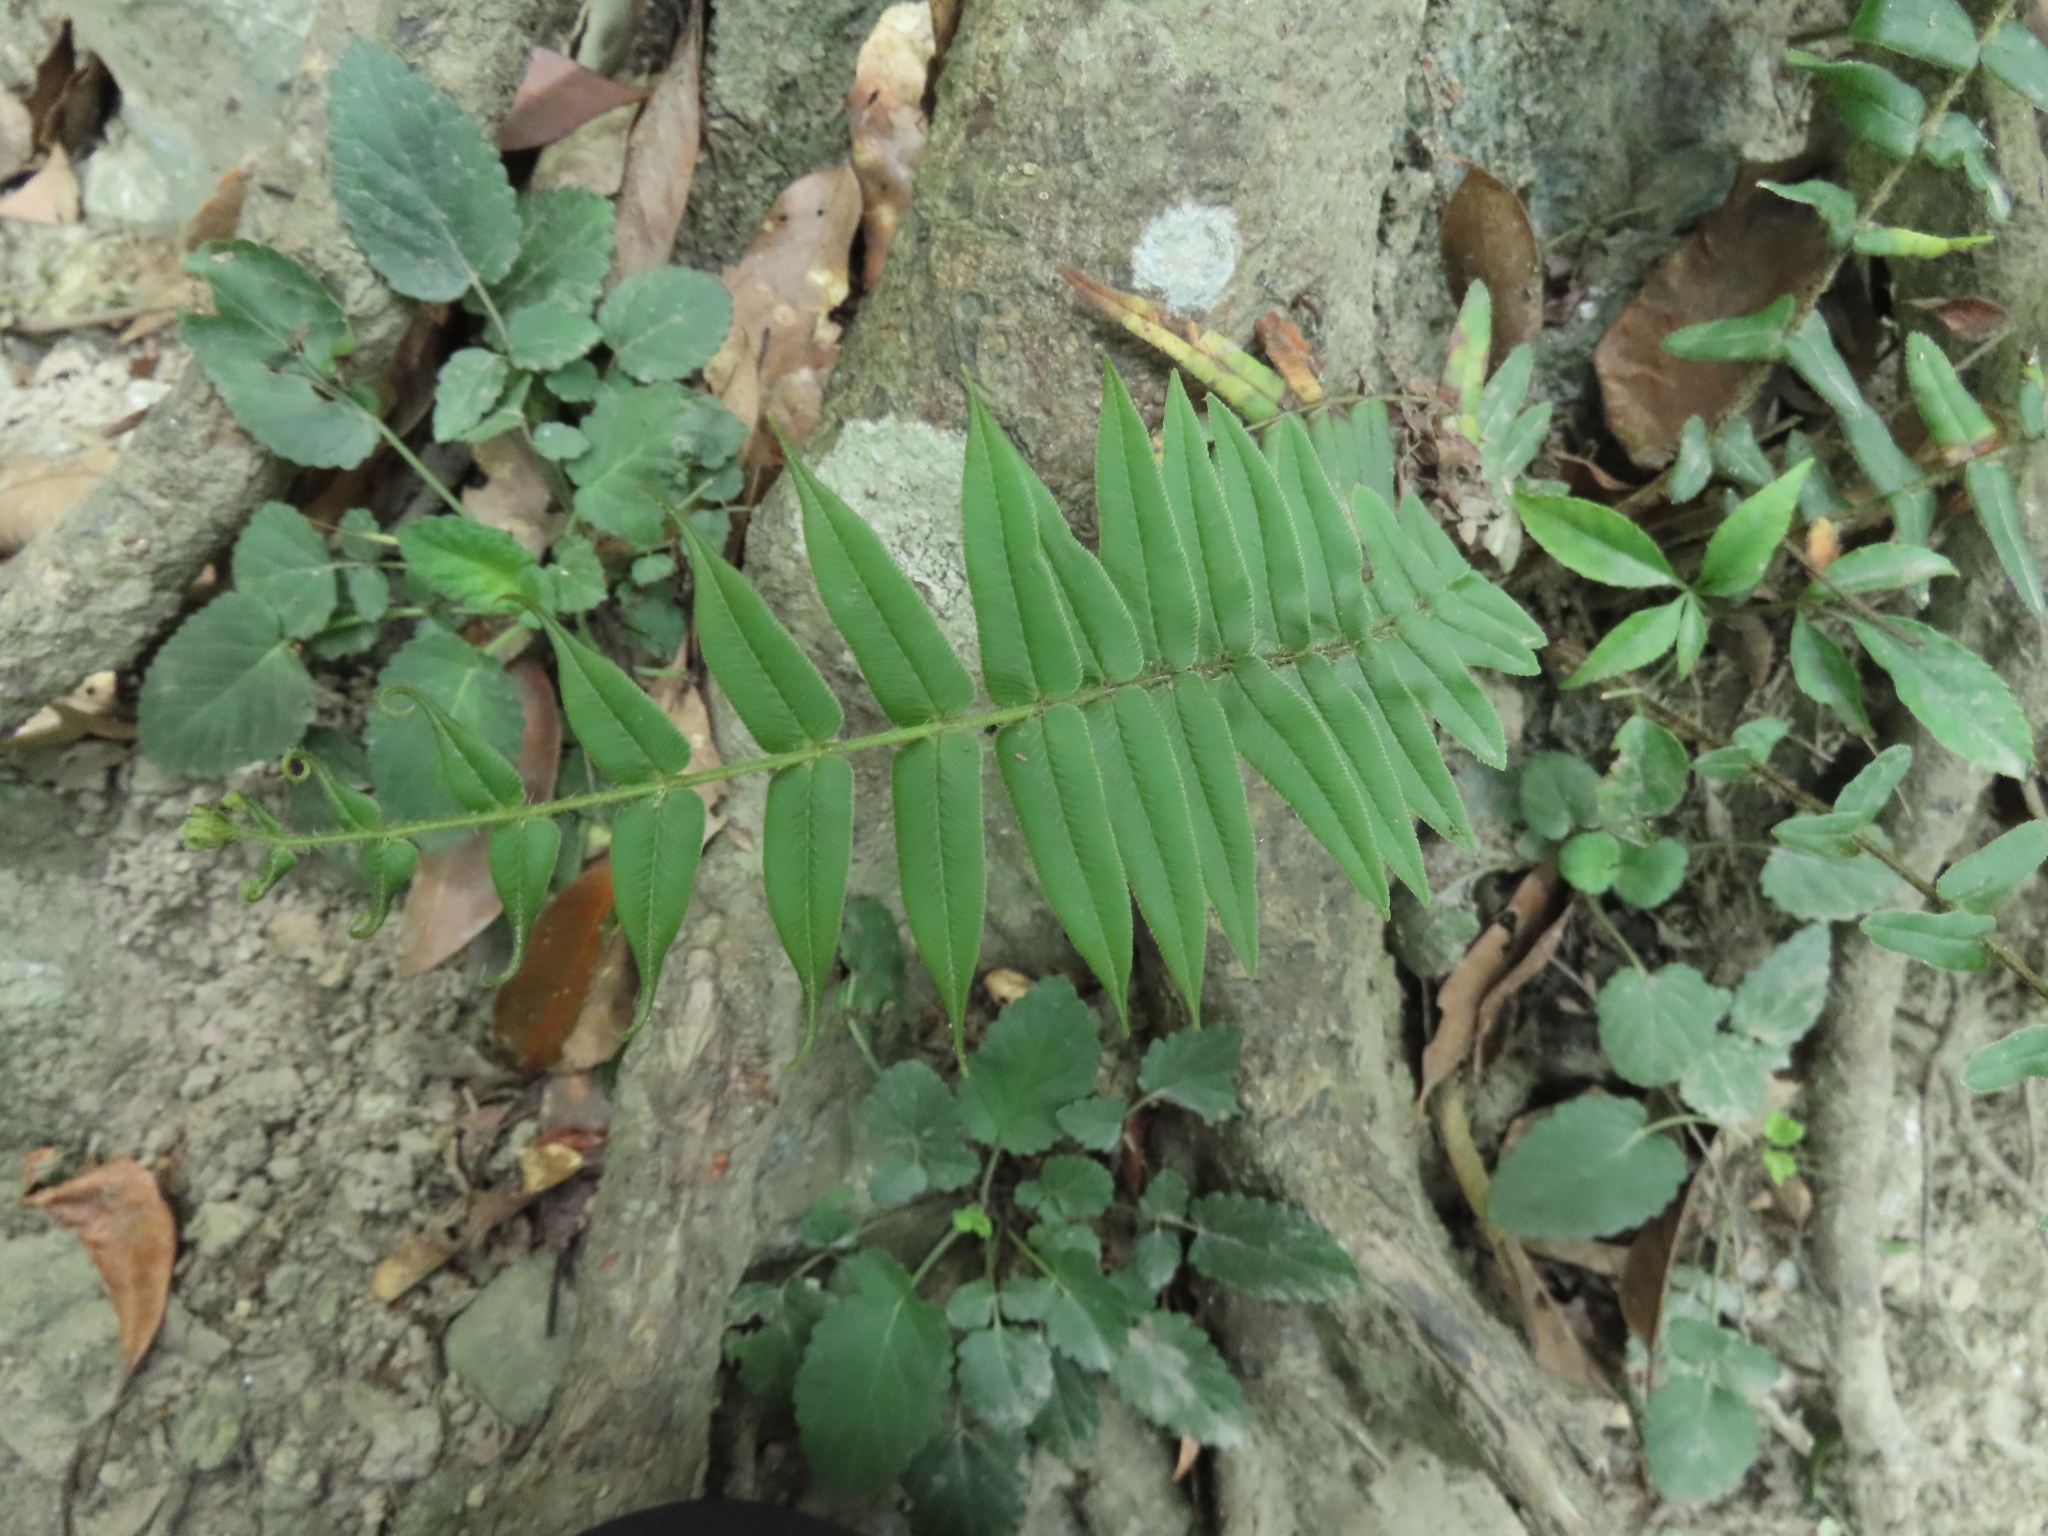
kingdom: Plantae
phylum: Tracheophyta
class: Polypodiopsida
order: Polypodiales
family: Pteridaceae
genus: Pteris
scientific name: Pteris vittata
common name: Ladder brake
